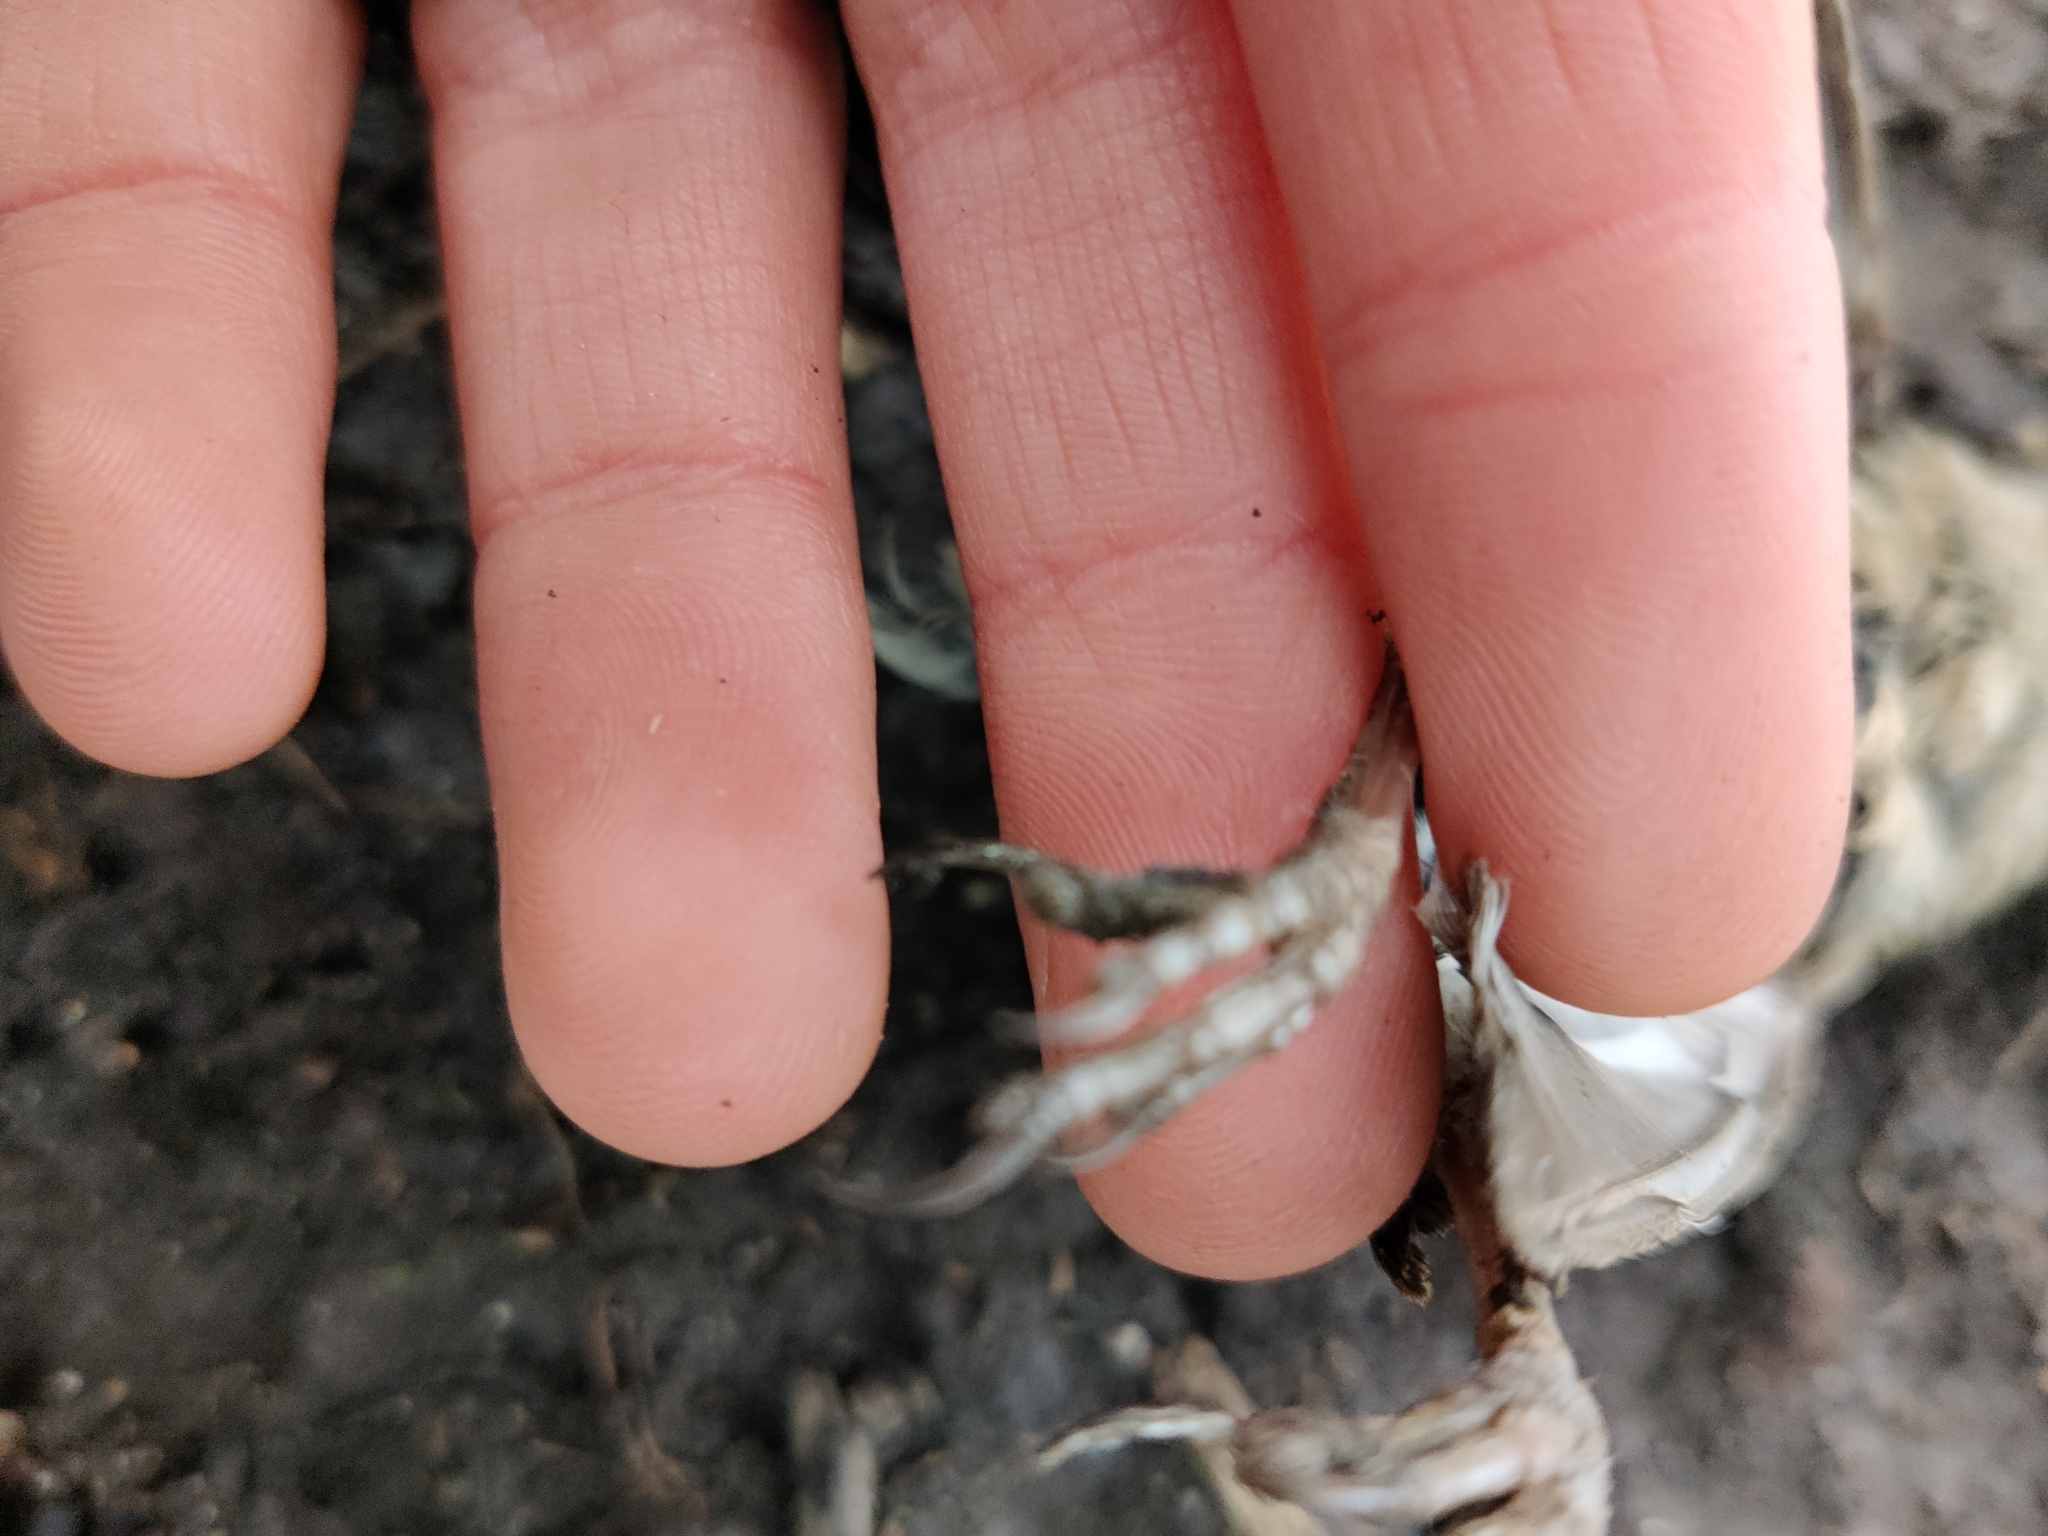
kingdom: Animalia
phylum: Chordata
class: Aves
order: Passeriformes
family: Fringillidae
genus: Fringilla
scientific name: Fringilla coelebs
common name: Common chaffinch
